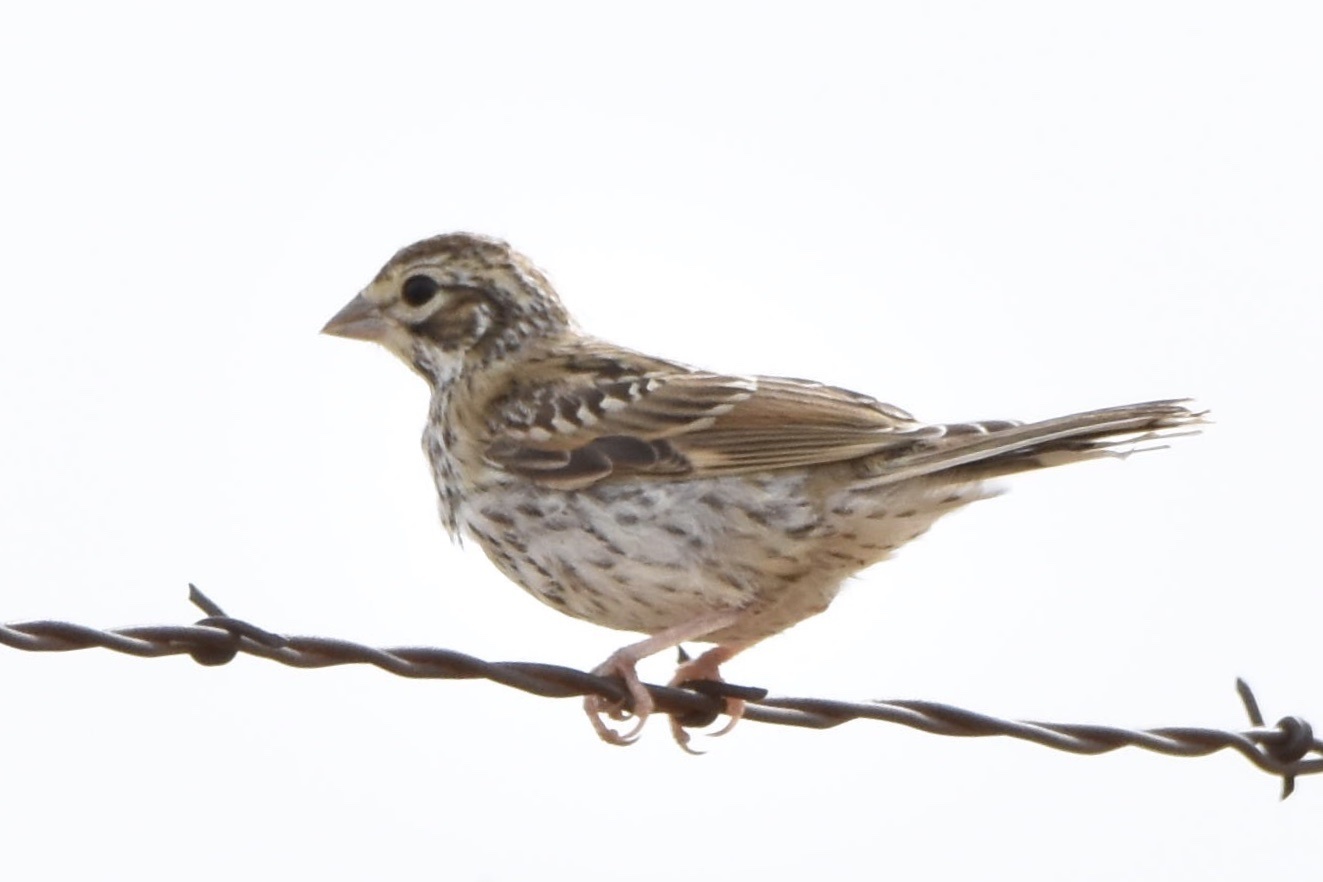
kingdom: Animalia
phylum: Chordata
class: Aves
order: Passeriformes
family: Passerellidae
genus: Chondestes
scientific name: Chondestes grammacus
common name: Lark sparrow
